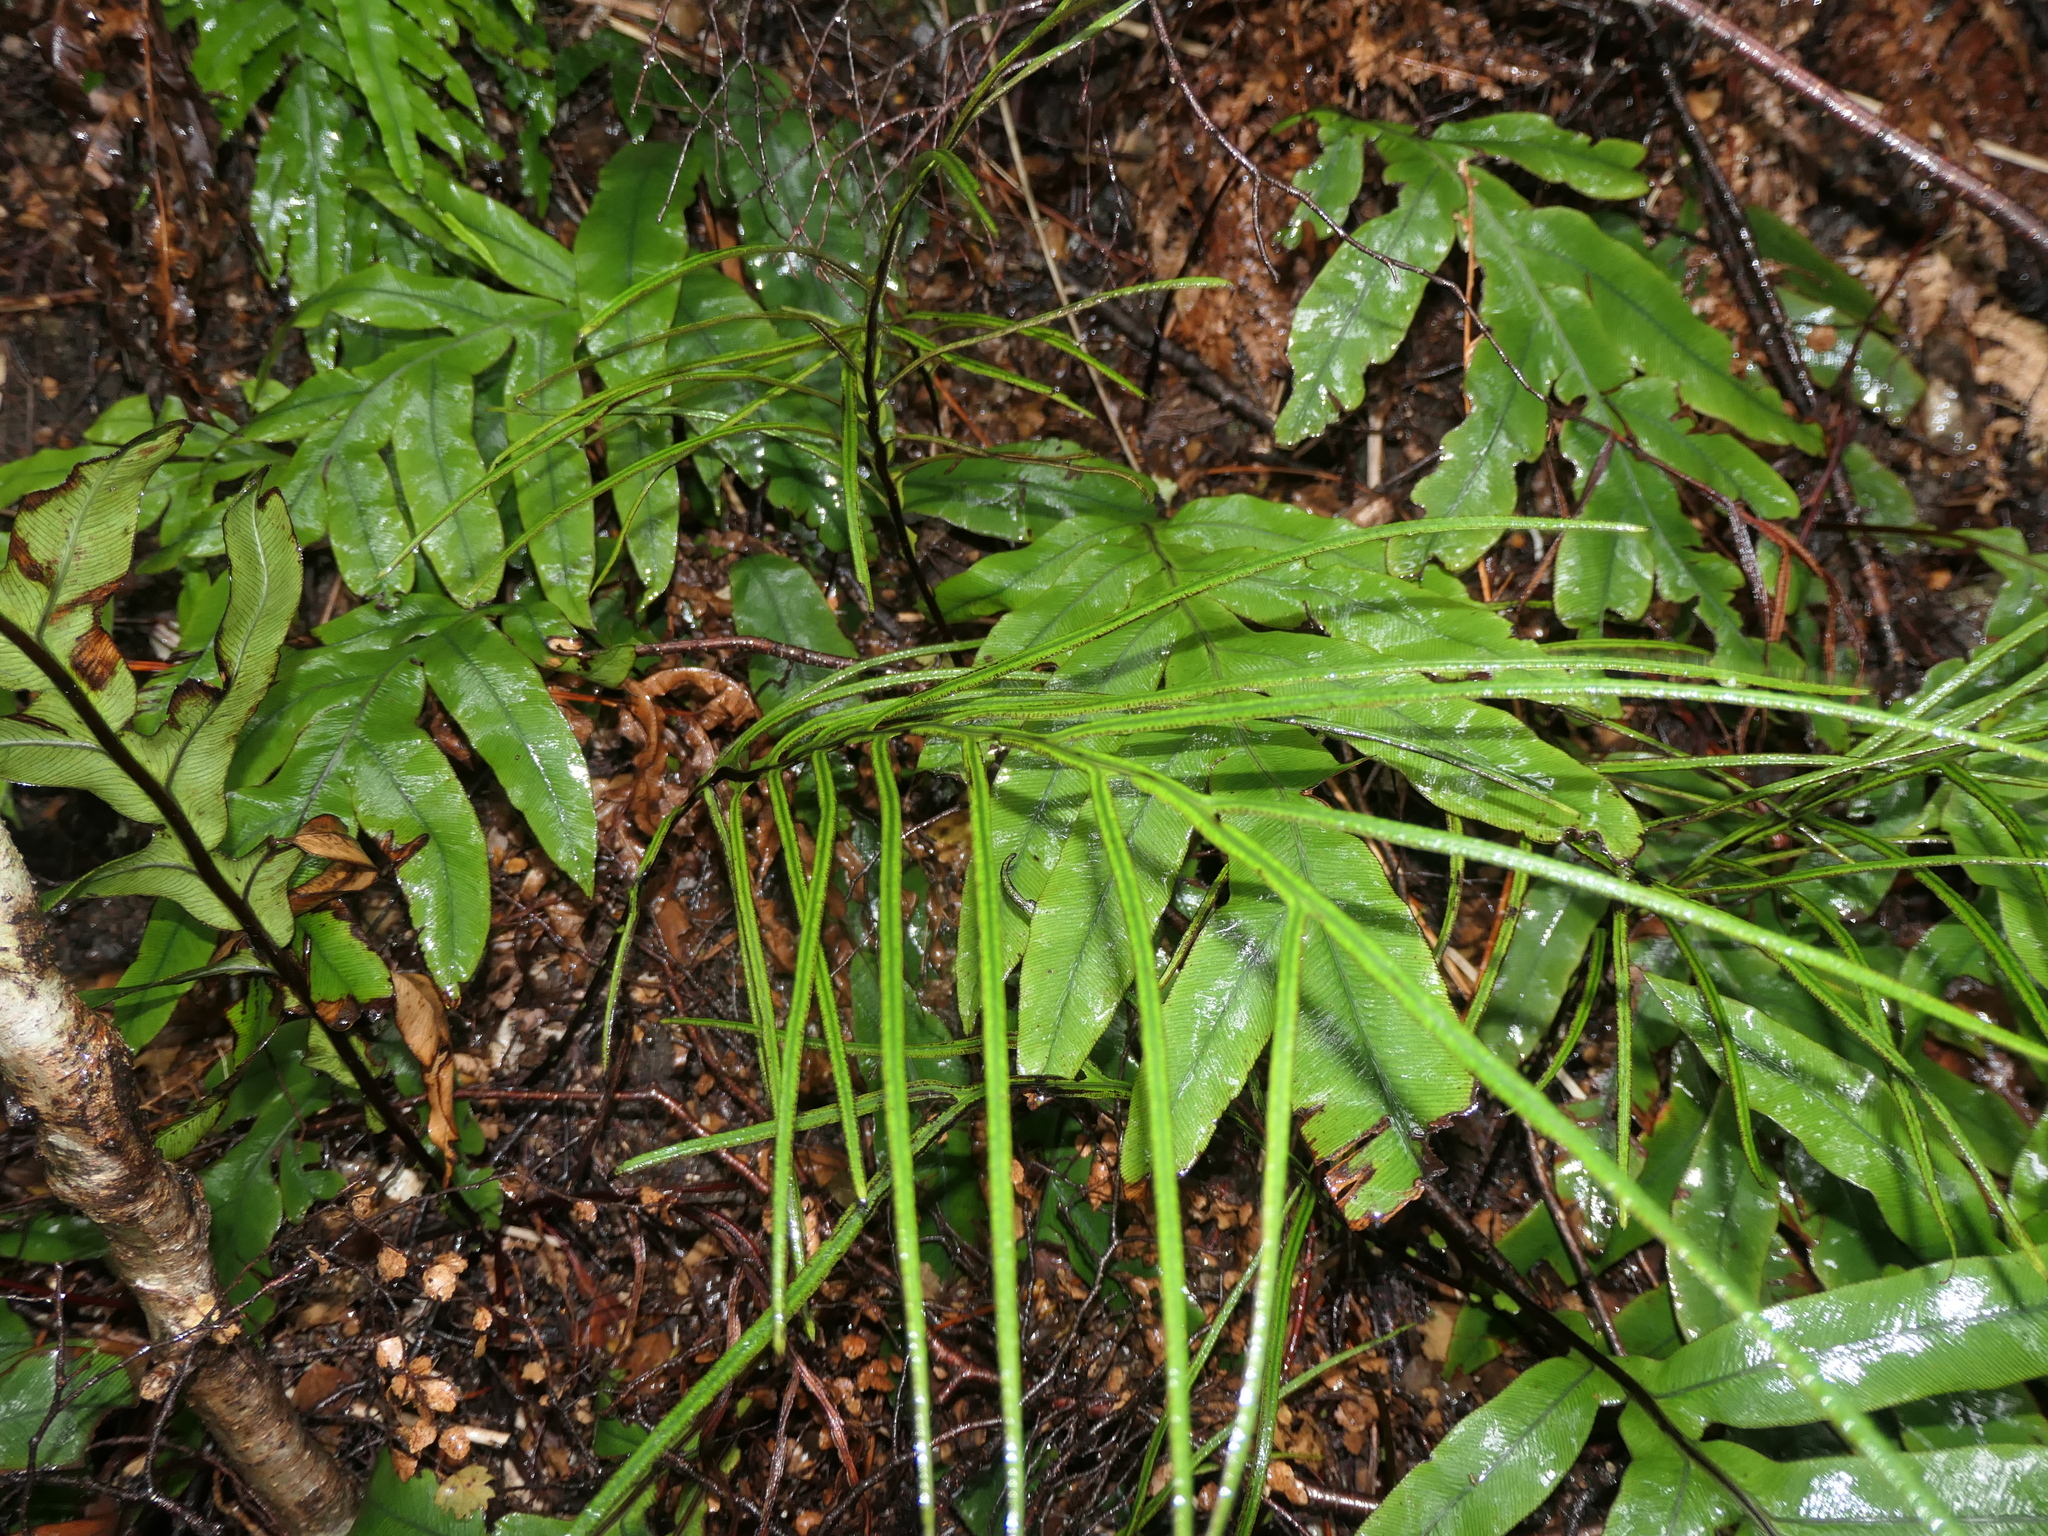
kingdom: Plantae
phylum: Tracheophyta
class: Polypodiopsida
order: Polypodiales
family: Blechnaceae
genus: Austroblechnum
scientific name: Austroblechnum colensoi
